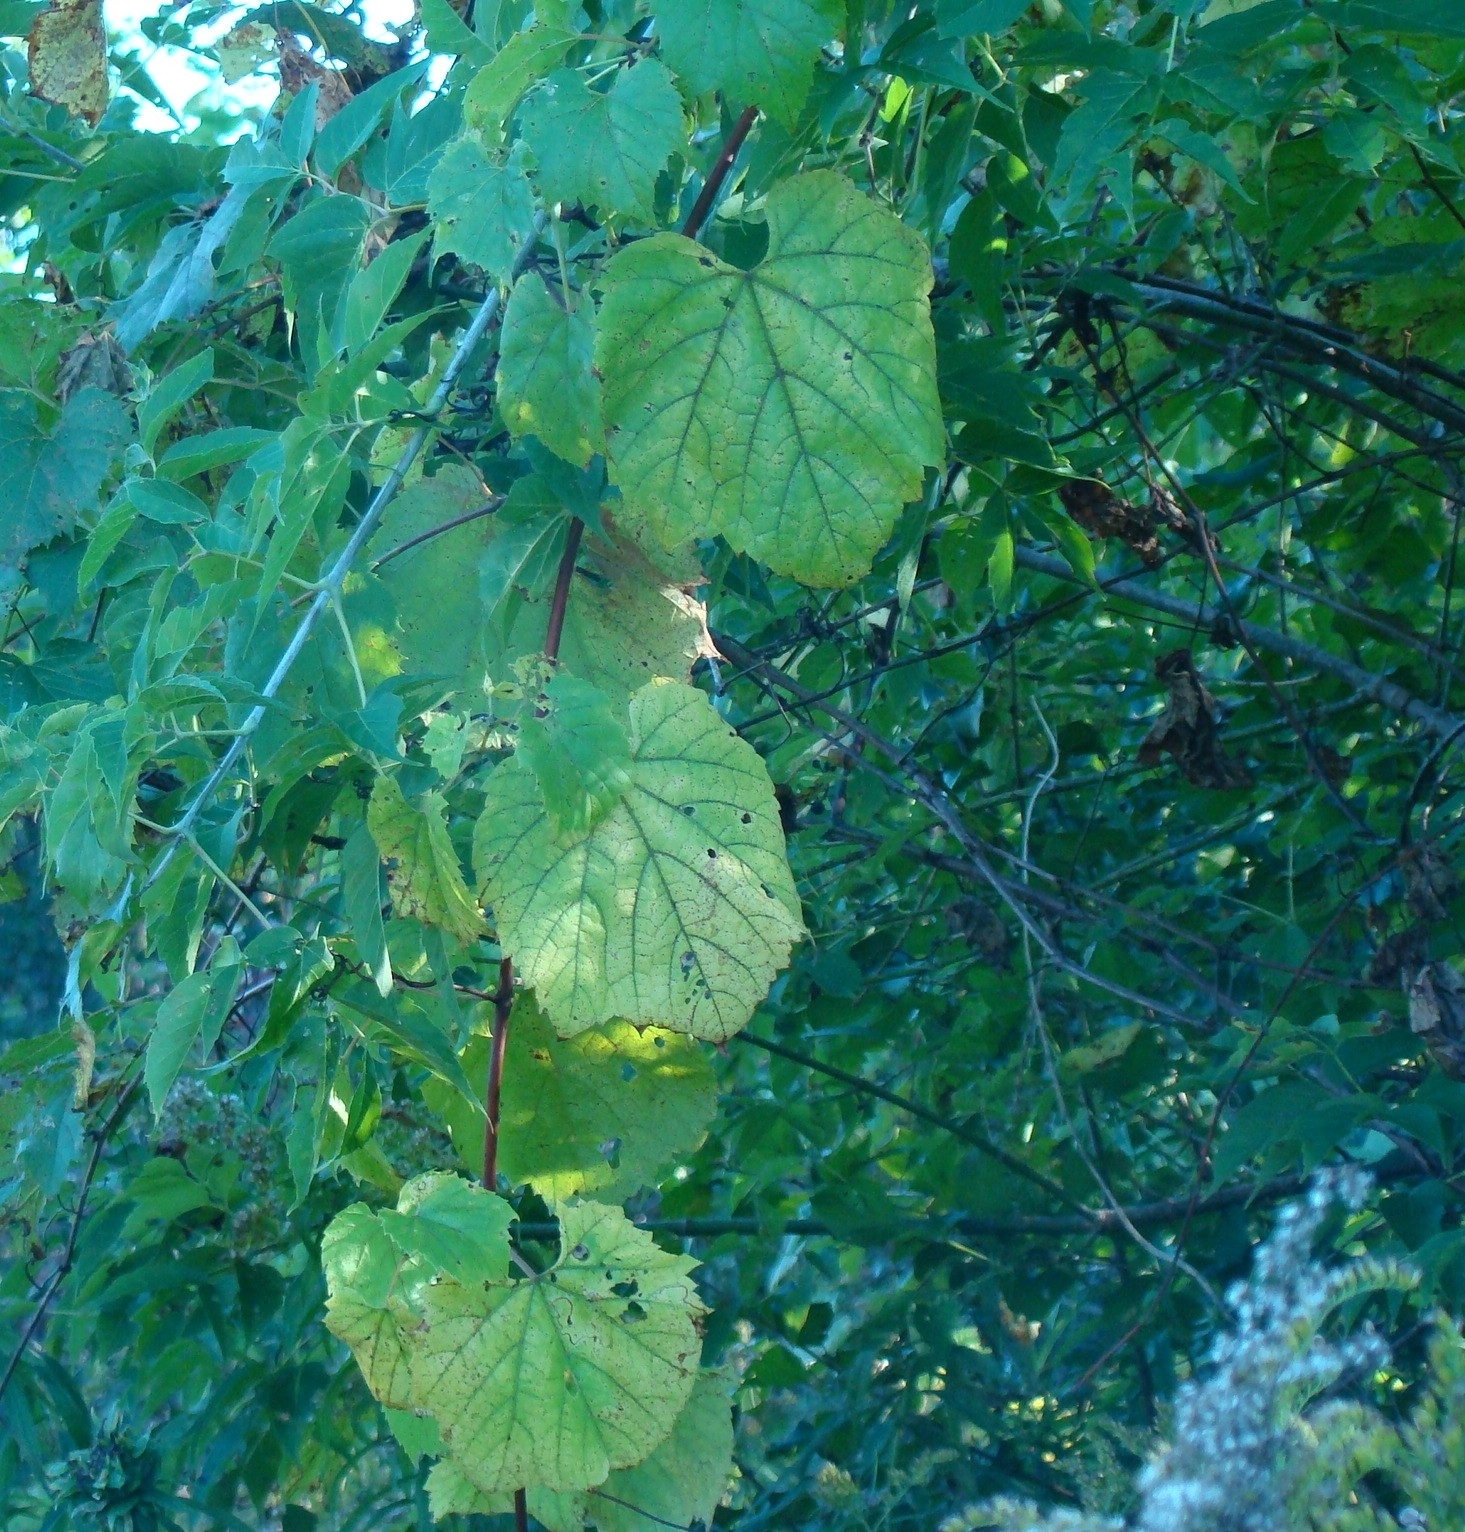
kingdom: Plantae
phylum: Tracheophyta
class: Magnoliopsida
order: Vitales
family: Vitaceae
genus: Vitis
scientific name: Vitis riparia
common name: Frost grape
